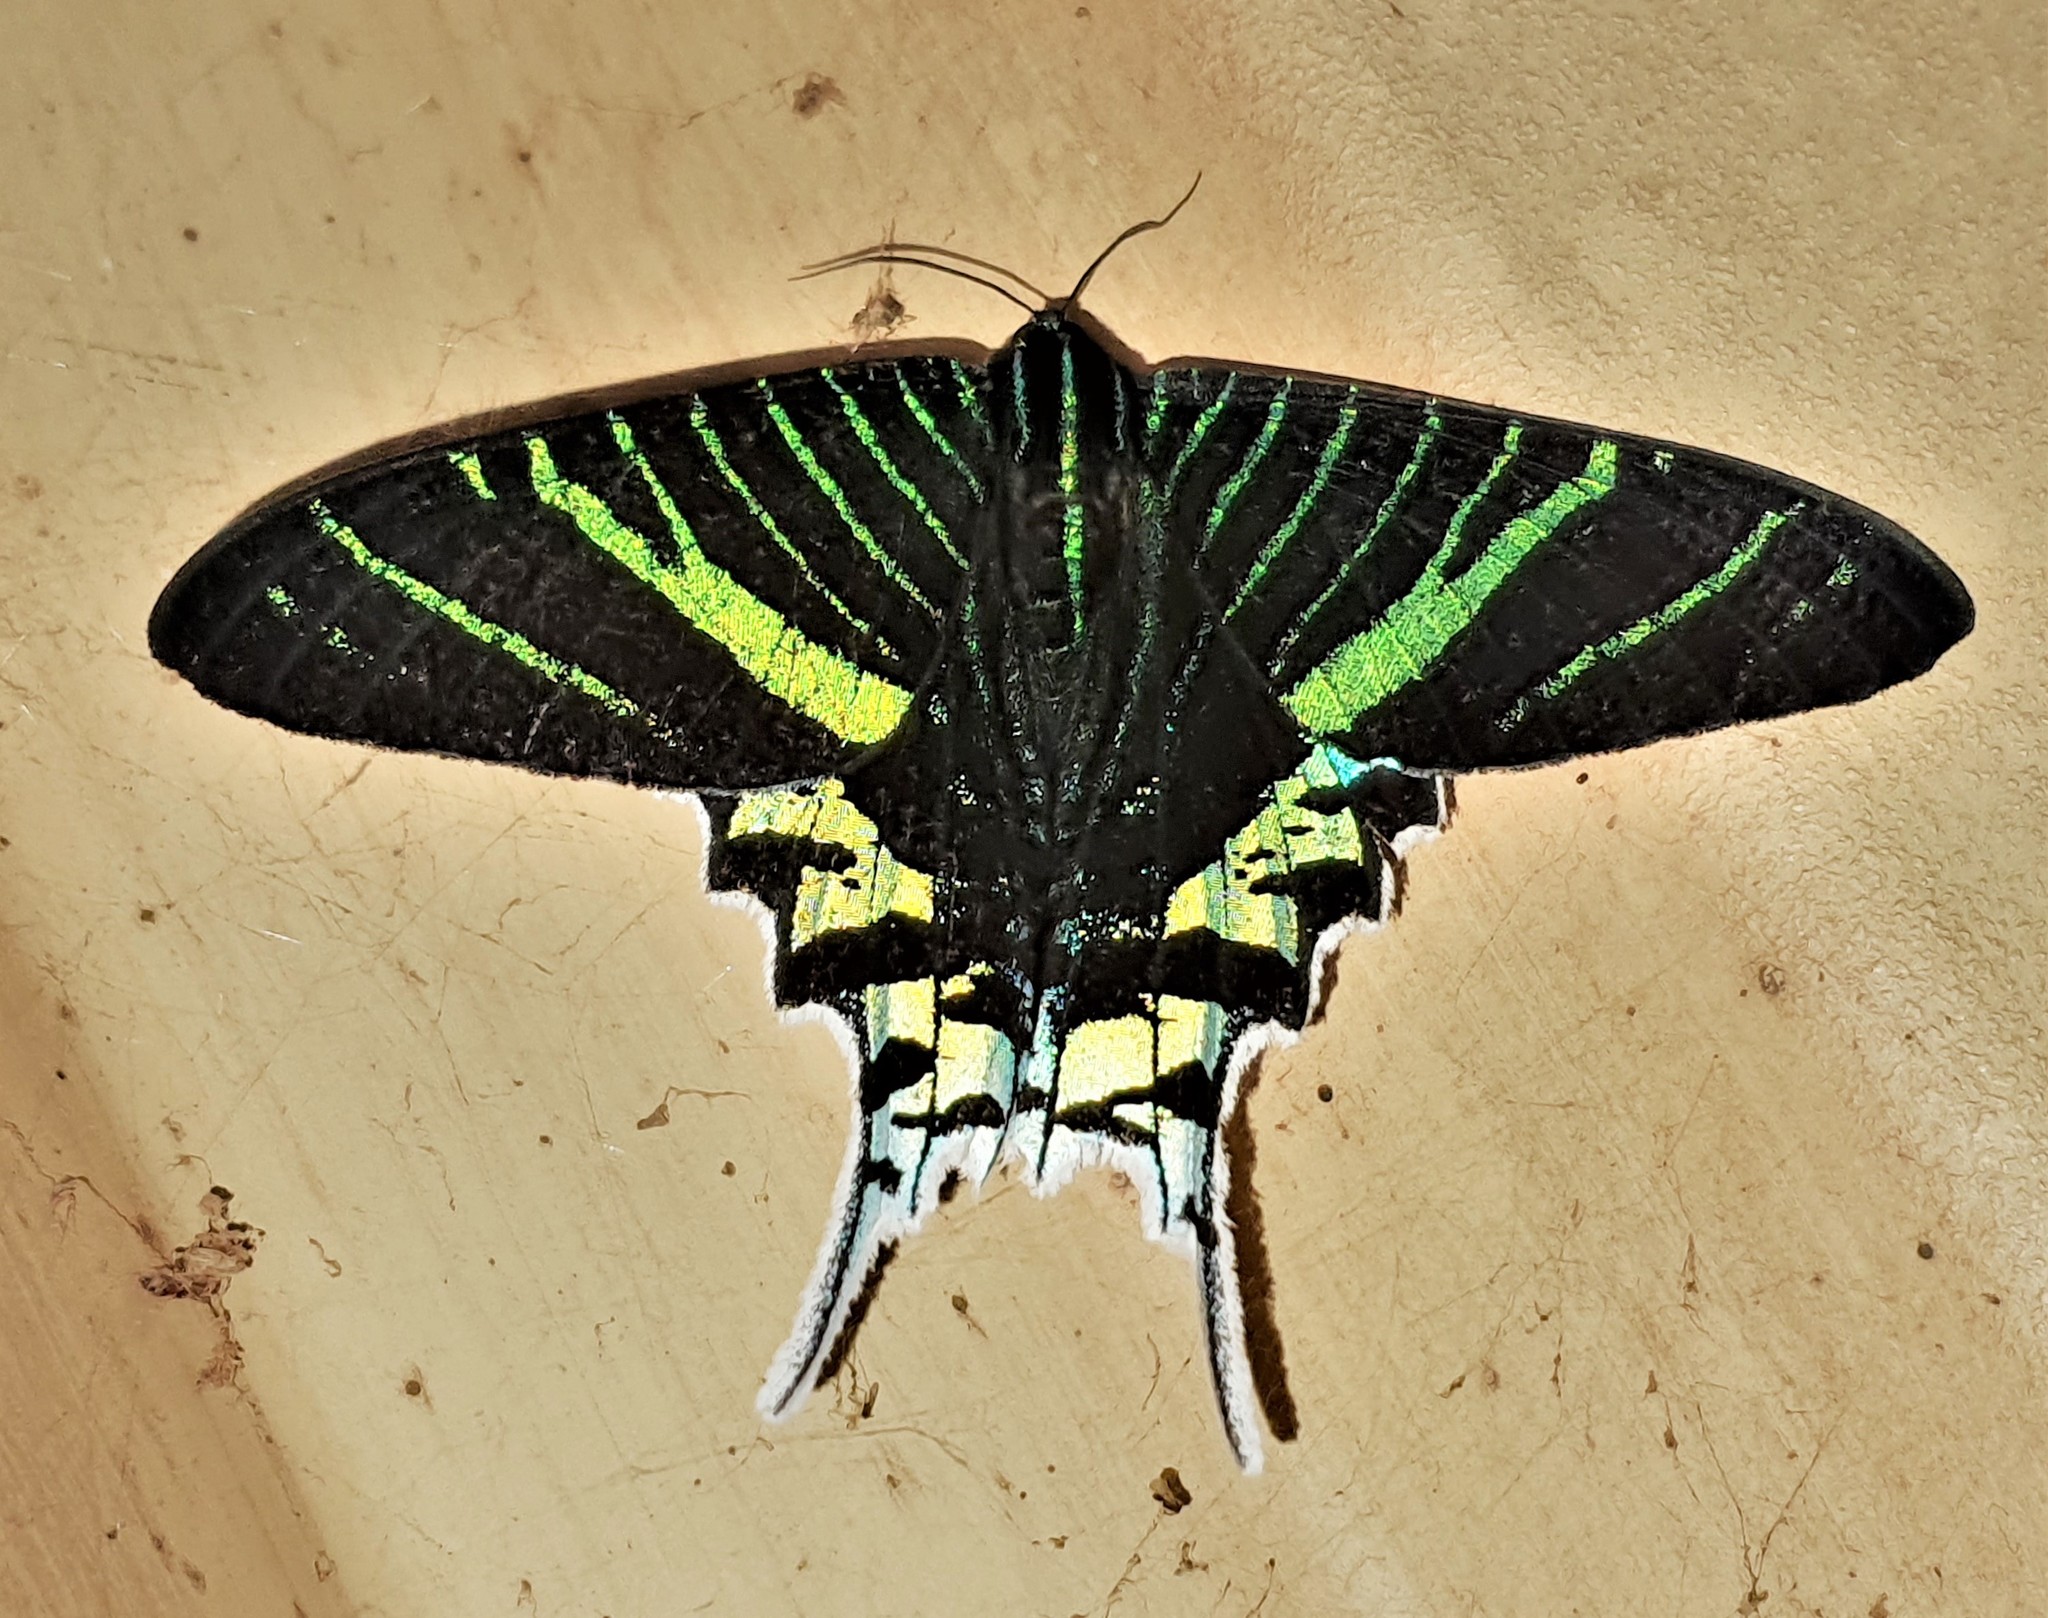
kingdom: Animalia
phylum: Arthropoda
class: Insecta
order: Lepidoptera
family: Uraniidae
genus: Urania
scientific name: Urania leilus
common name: Peacock moth
